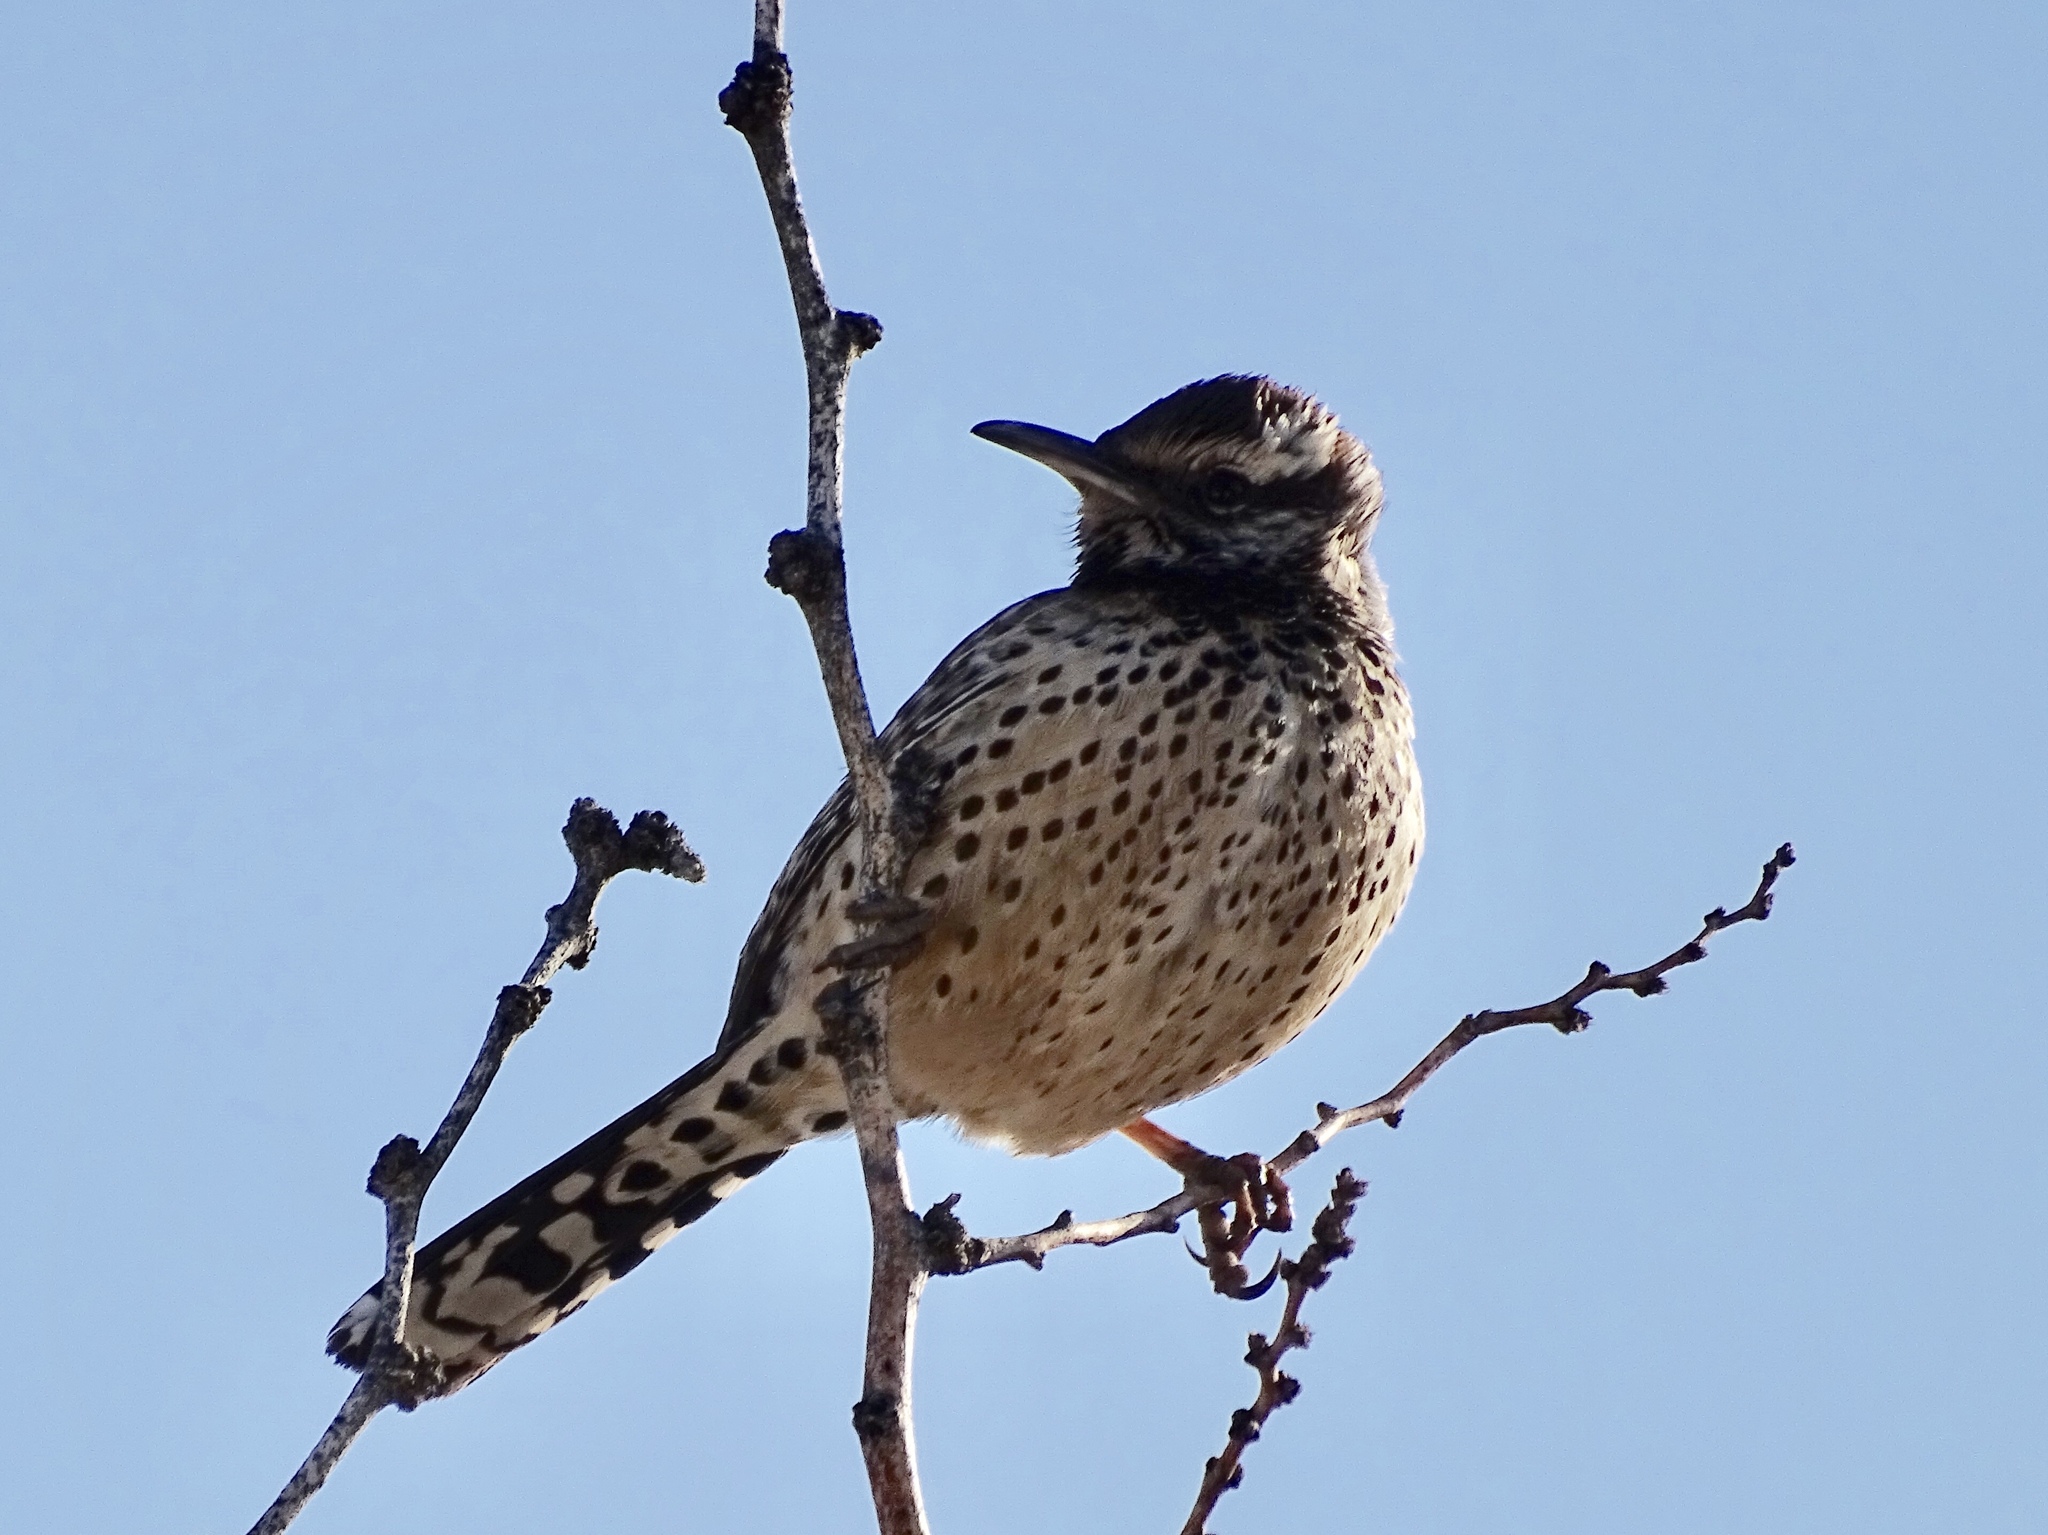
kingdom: Animalia
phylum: Chordata
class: Aves
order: Passeriformes
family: Troglodytidae
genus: Campylorhynchus
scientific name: Campylorhynchus brunneicapillus
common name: Cactus wren
